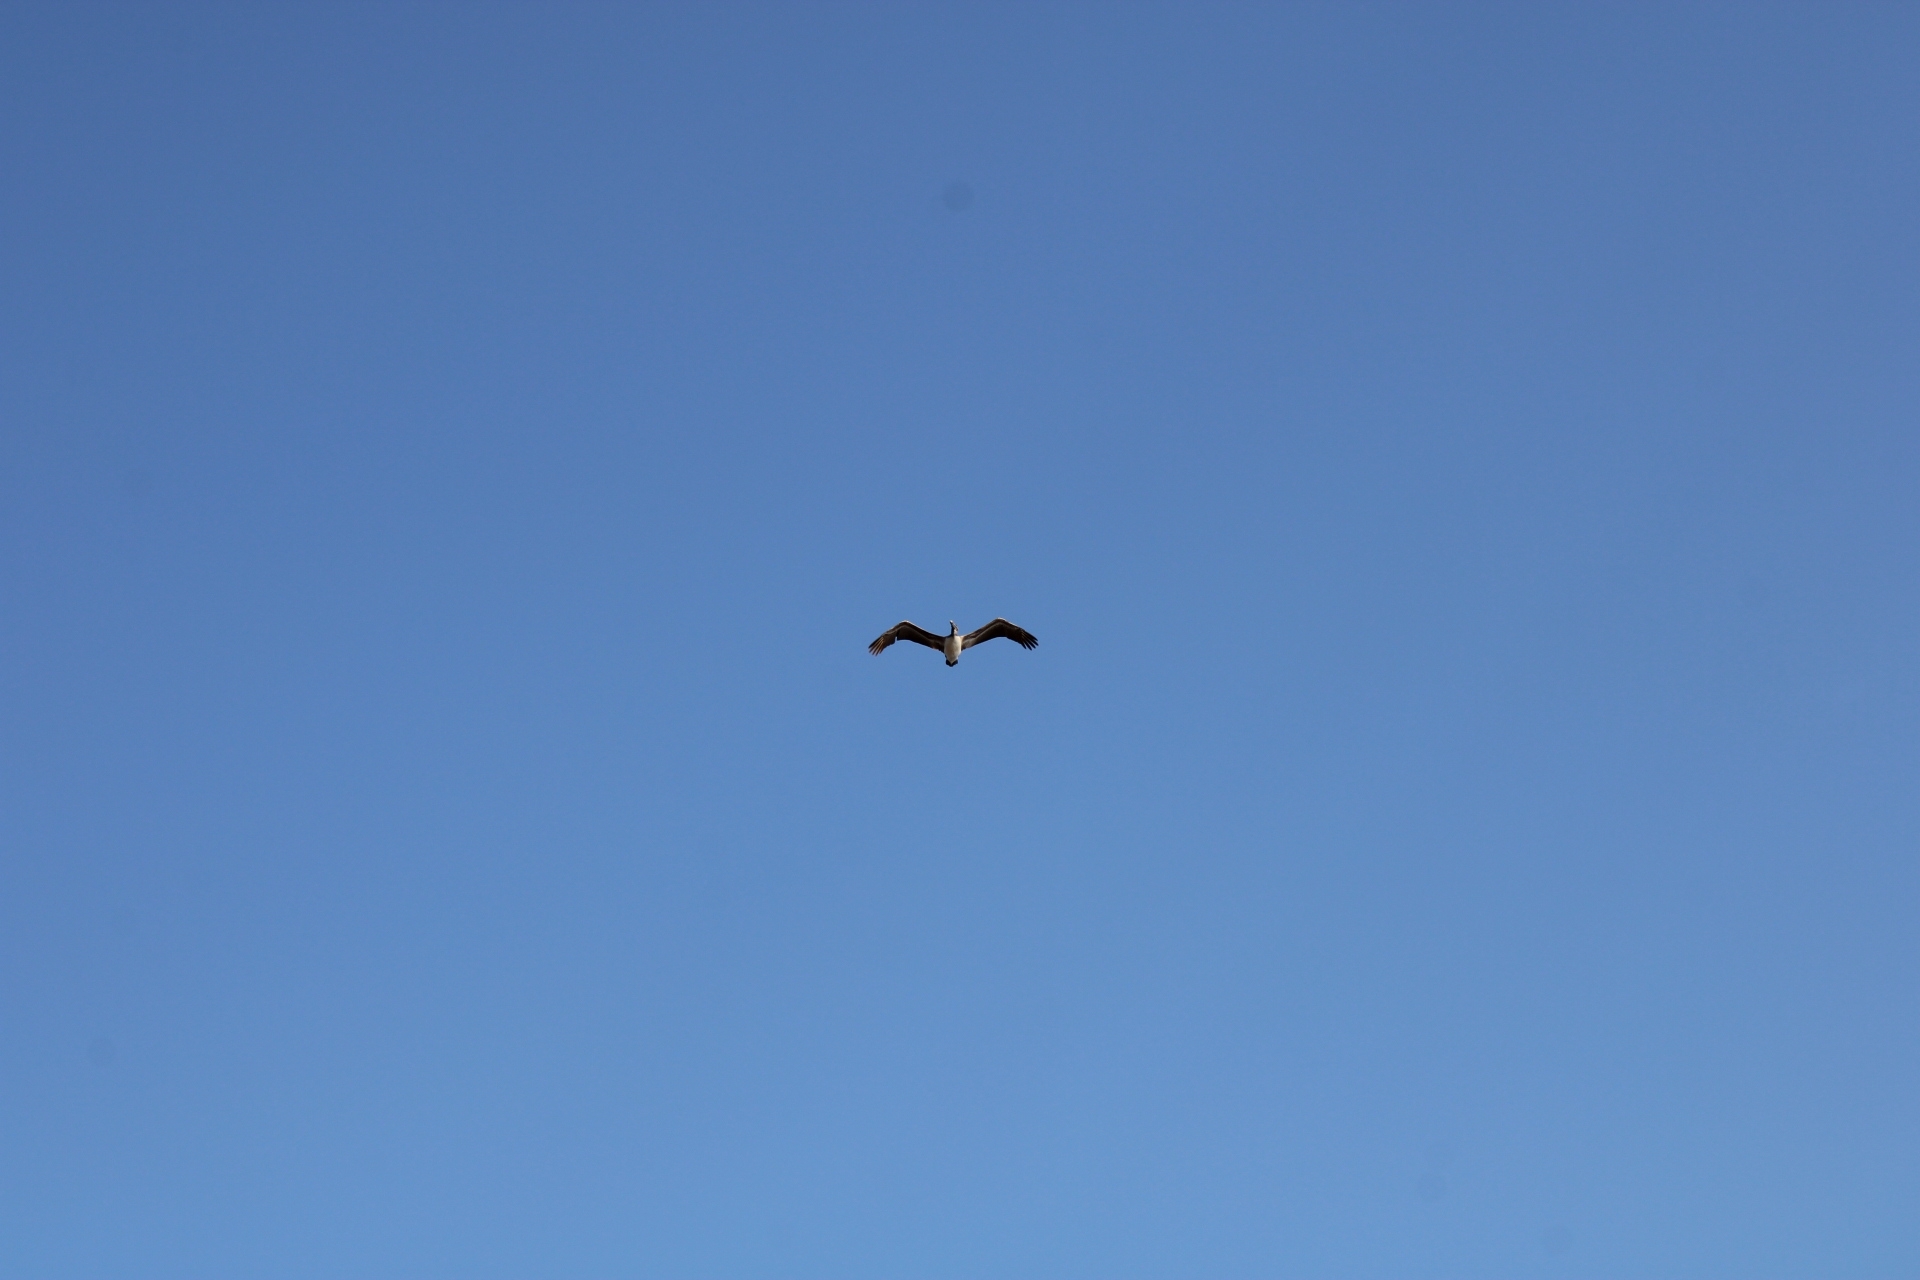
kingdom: Animalia
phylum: Chordata
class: Aves
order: Pelecaniformes
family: Pelecanidae
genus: Pelecanus
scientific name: Pelecanus occidentalis
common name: Brown pelican
